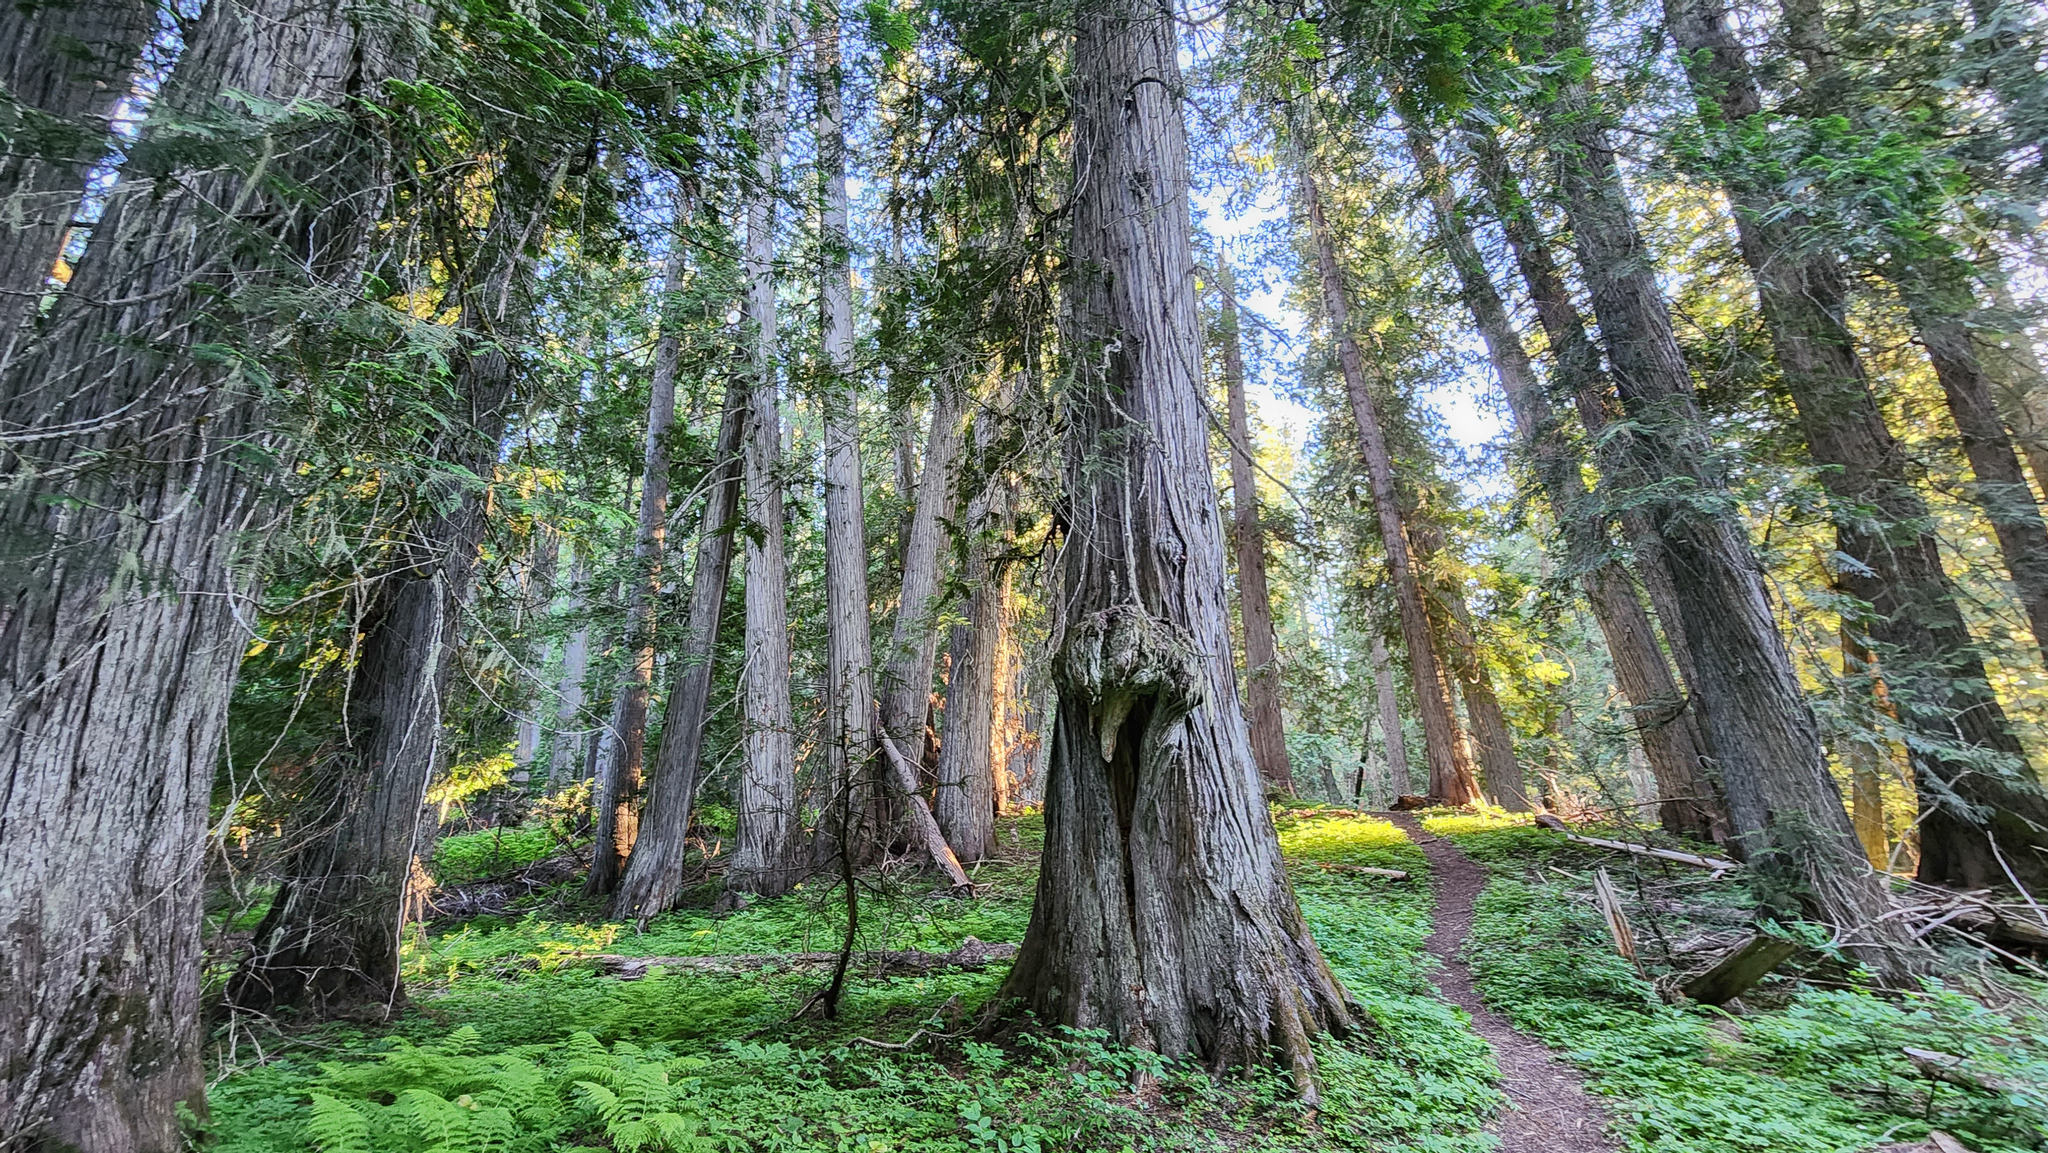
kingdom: Plantae
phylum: Tracheophyta
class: Pinopsida
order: Pinales
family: Cupressaceae
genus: Thuja
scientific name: Thuja plicata
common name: Western red-cedar
